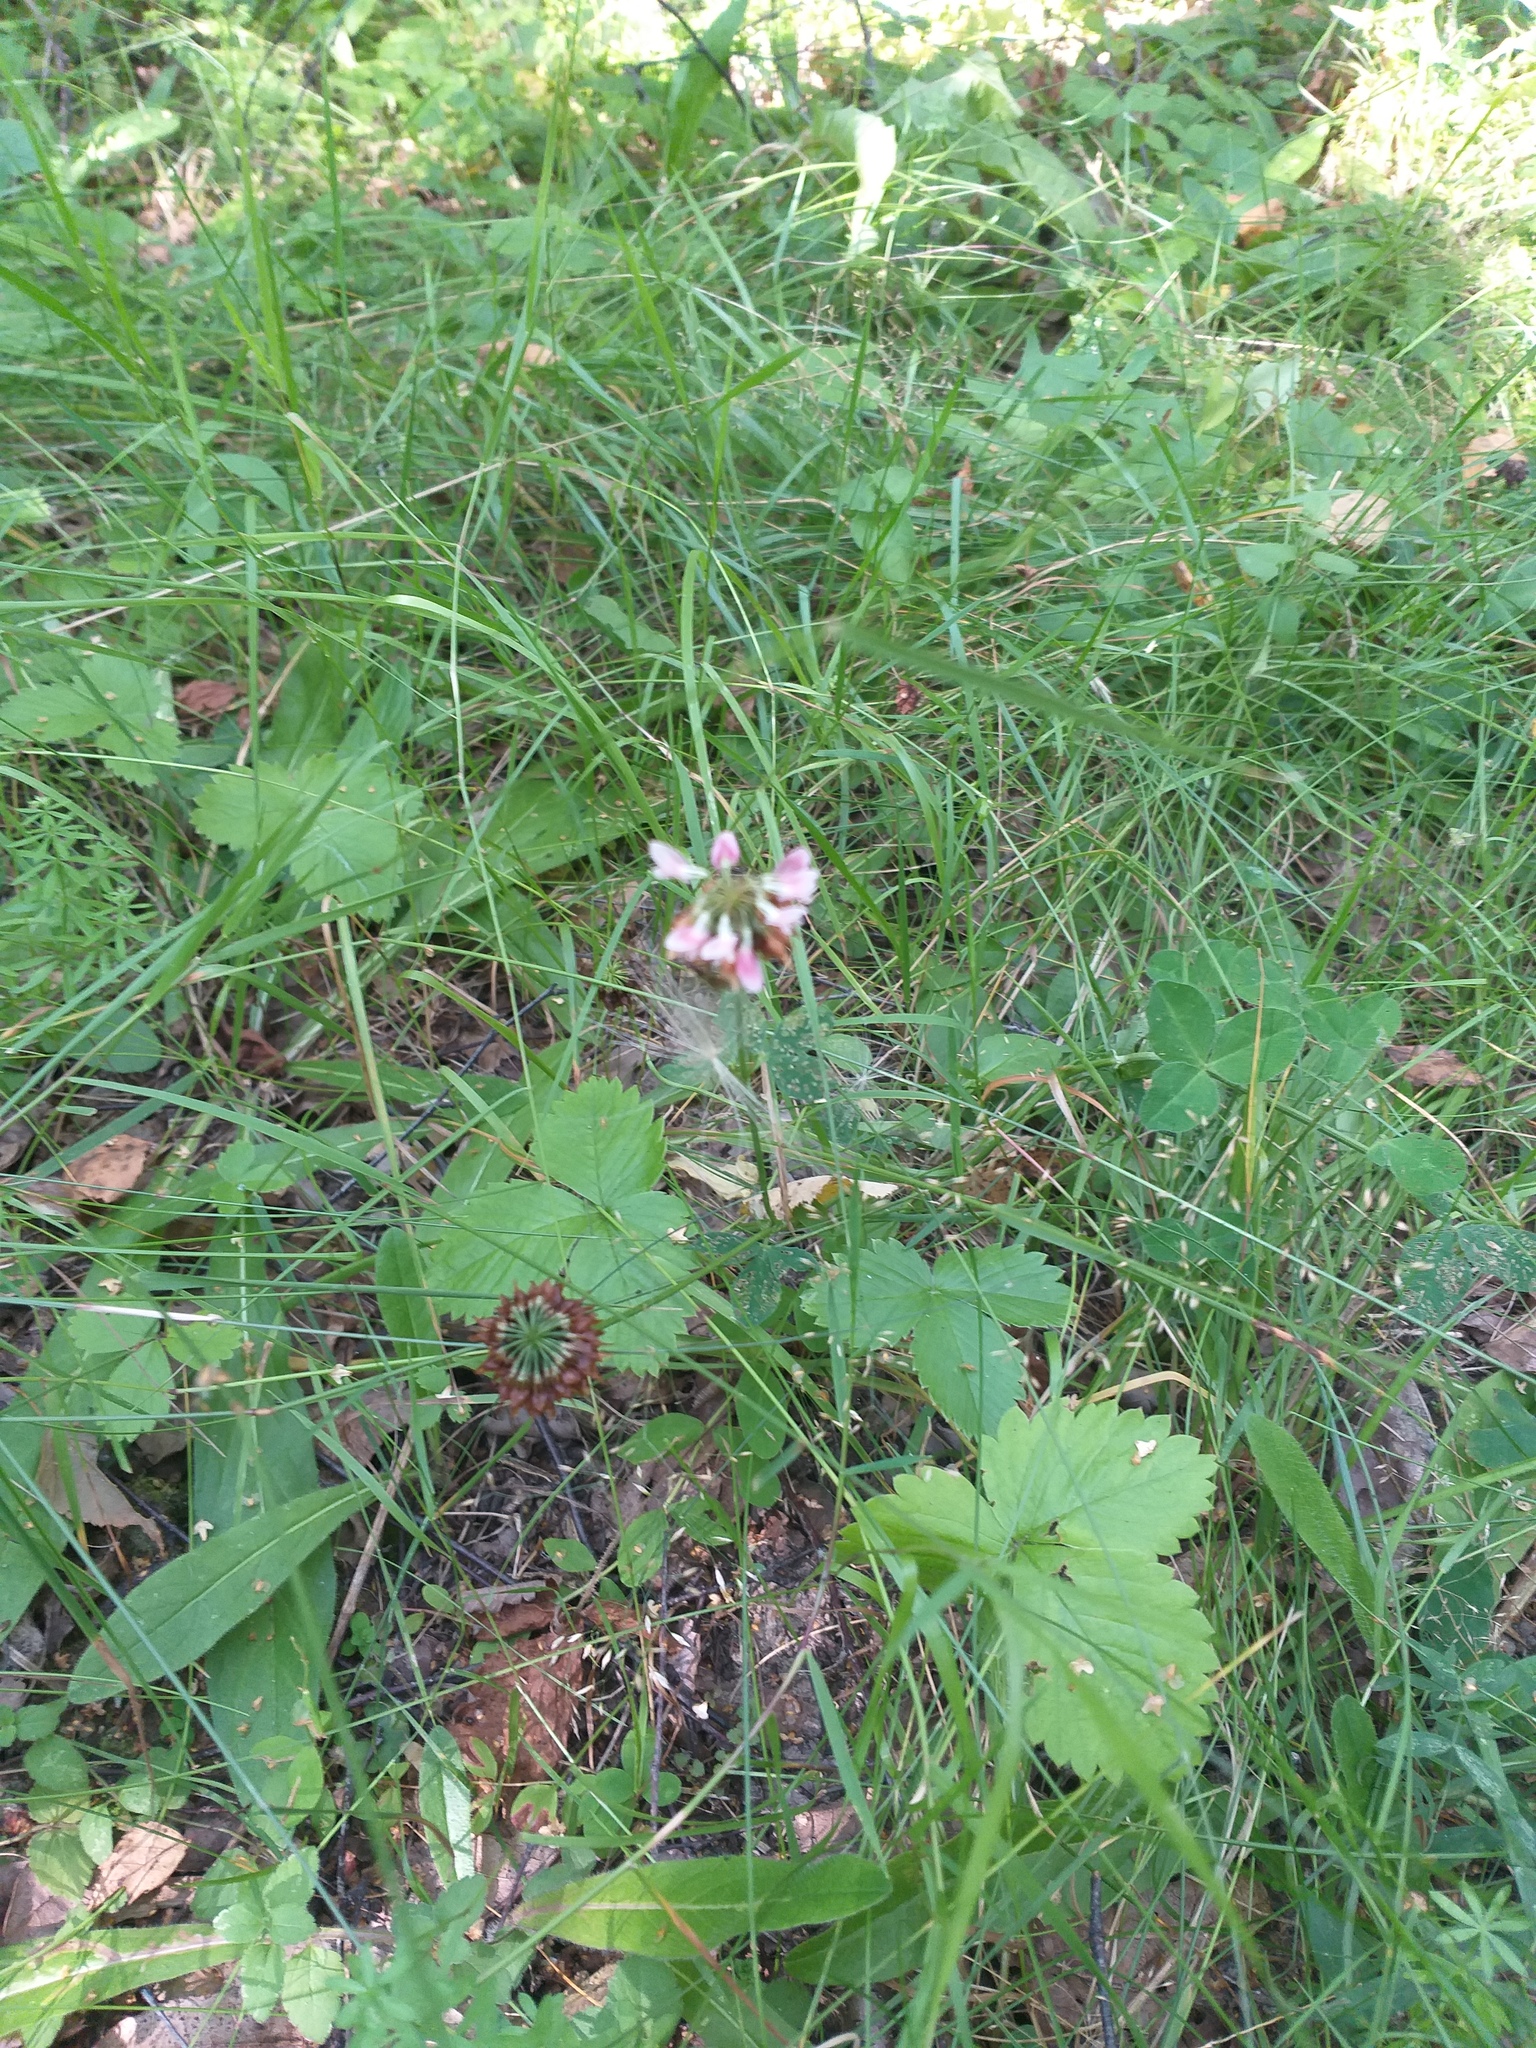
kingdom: Plantae
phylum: Tracheophyta
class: Magnoliopsida
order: Fabales
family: Fabaceae
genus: Trifolium
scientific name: Trifolium hybridum
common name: Alsike clover
